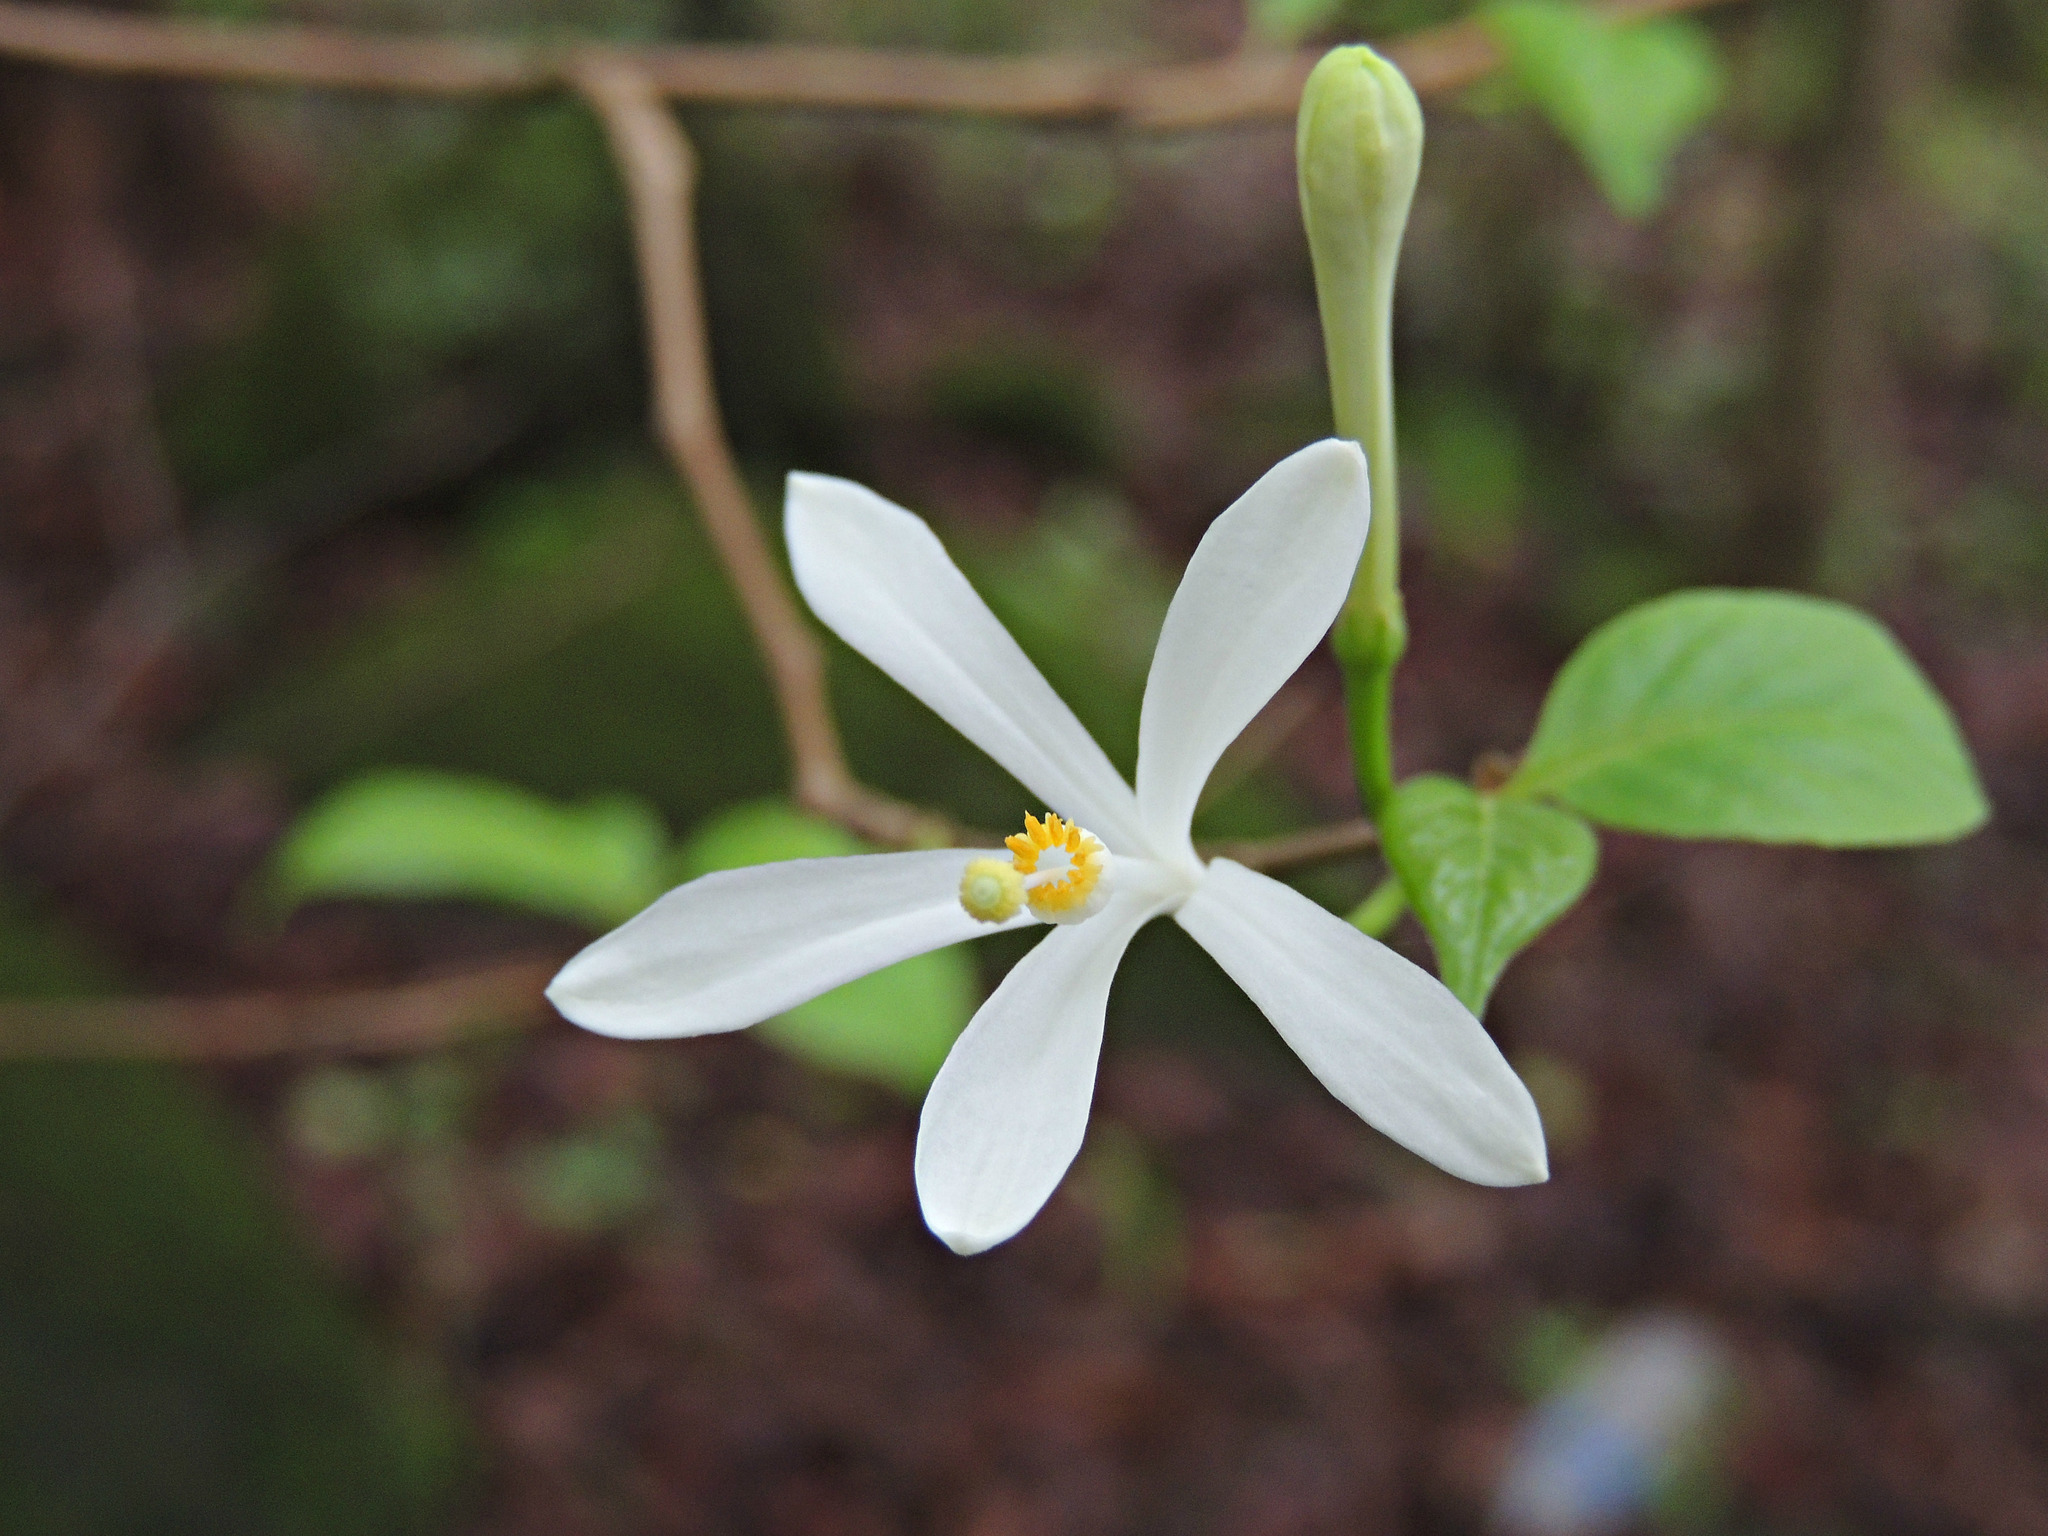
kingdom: Plantae
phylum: Tracheophyta
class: Magnoliopsida
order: Sapindales
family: Meliaceae
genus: Turraea
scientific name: Turraea pubescens
